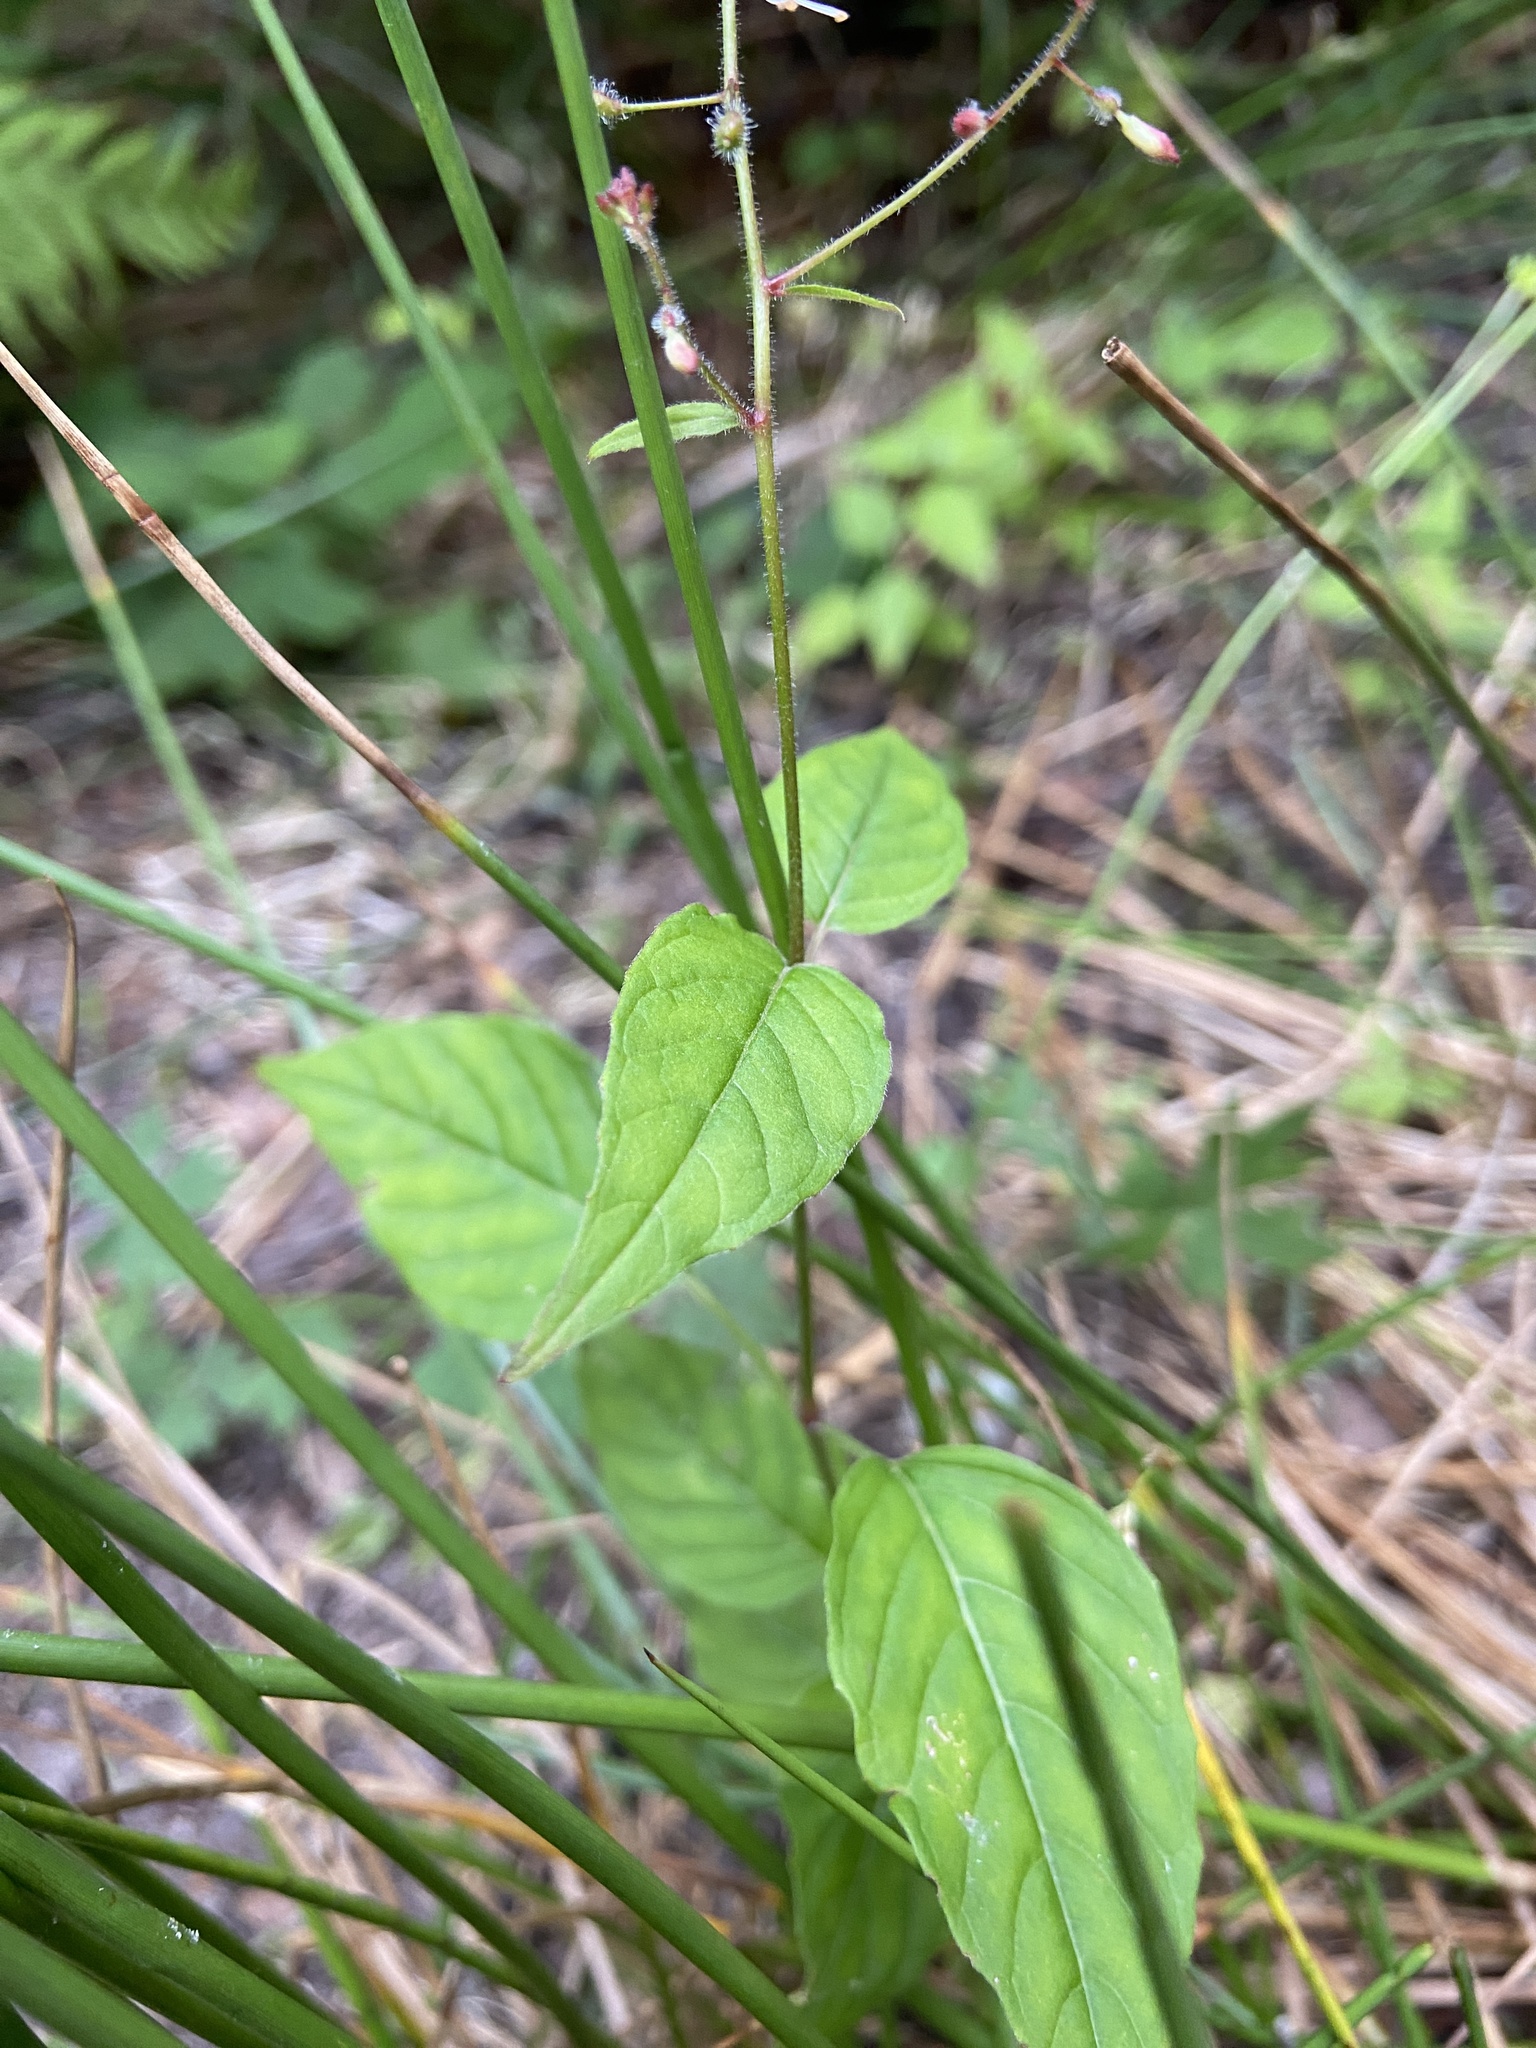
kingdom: Plantae
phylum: Tracheophyta
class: Magnoliopsida
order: Myrtales
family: Onagraceae
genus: Circaea
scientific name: Circaea lutetiana
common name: Enchanter's-nightshade
